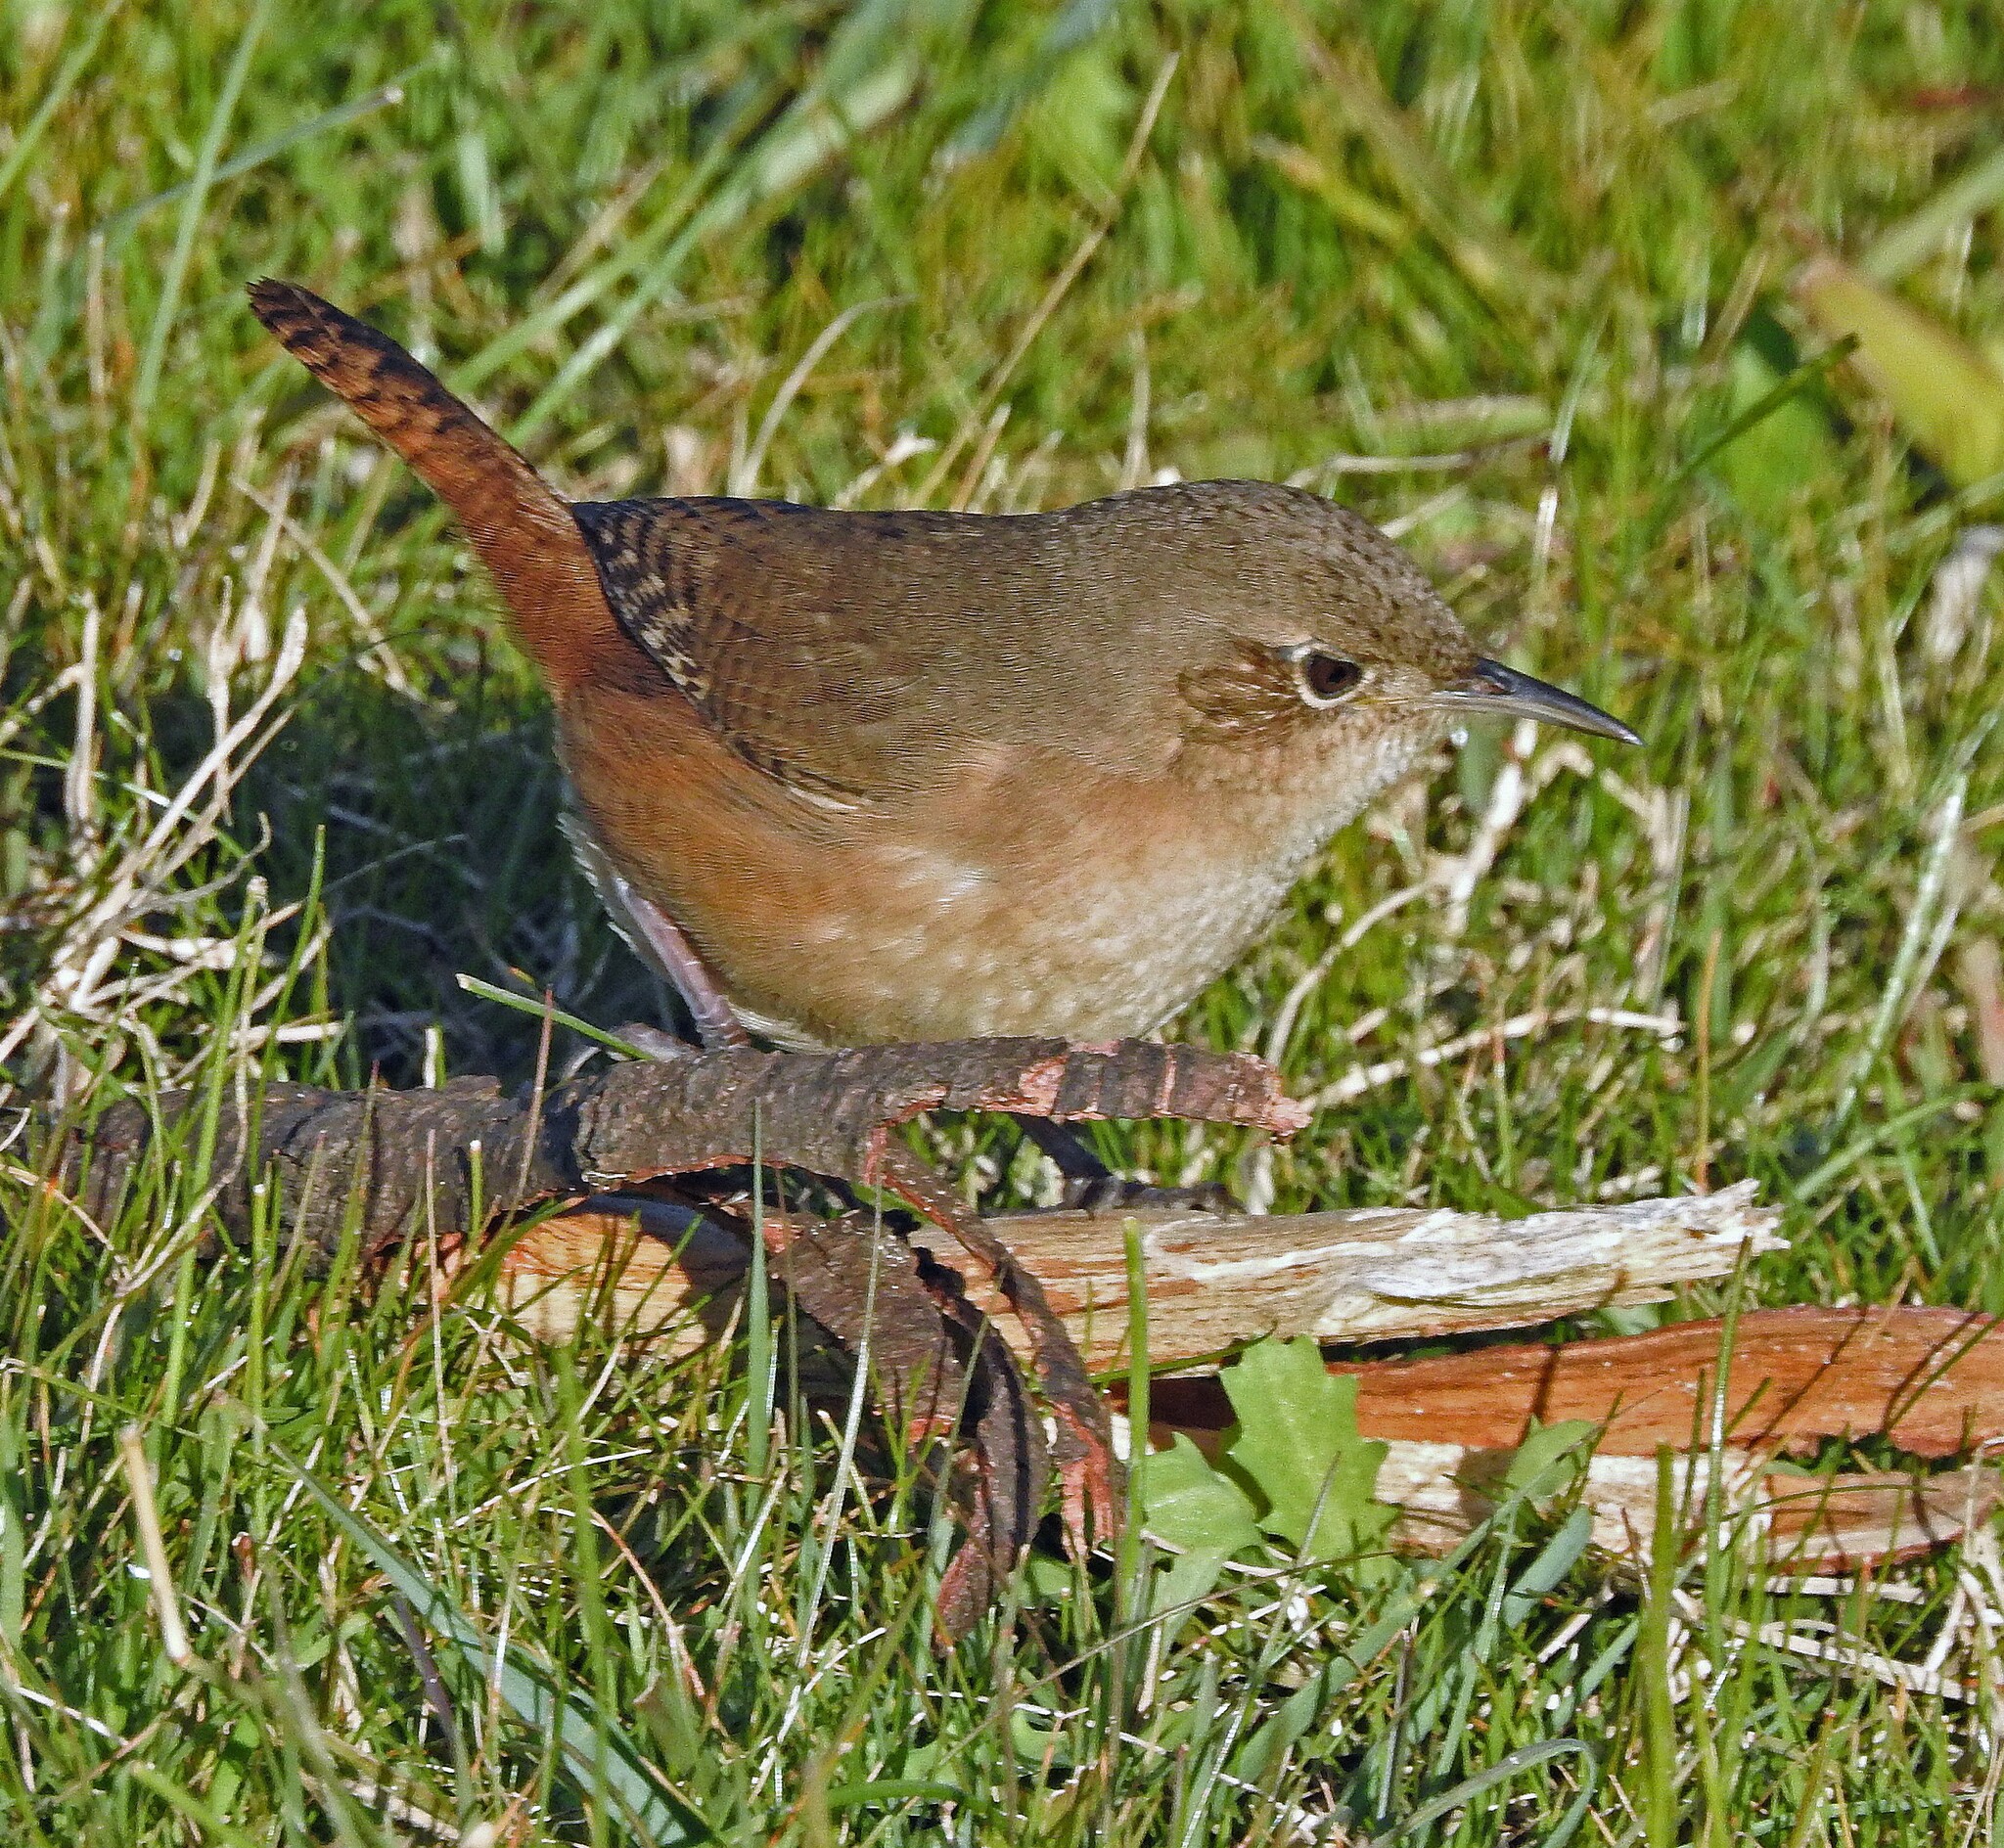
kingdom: Animalia
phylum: Chordata
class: Aves
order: Passeriformes
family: Troglodytidae
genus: Troglodytes
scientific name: Troglodytes aedon
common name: House wren
